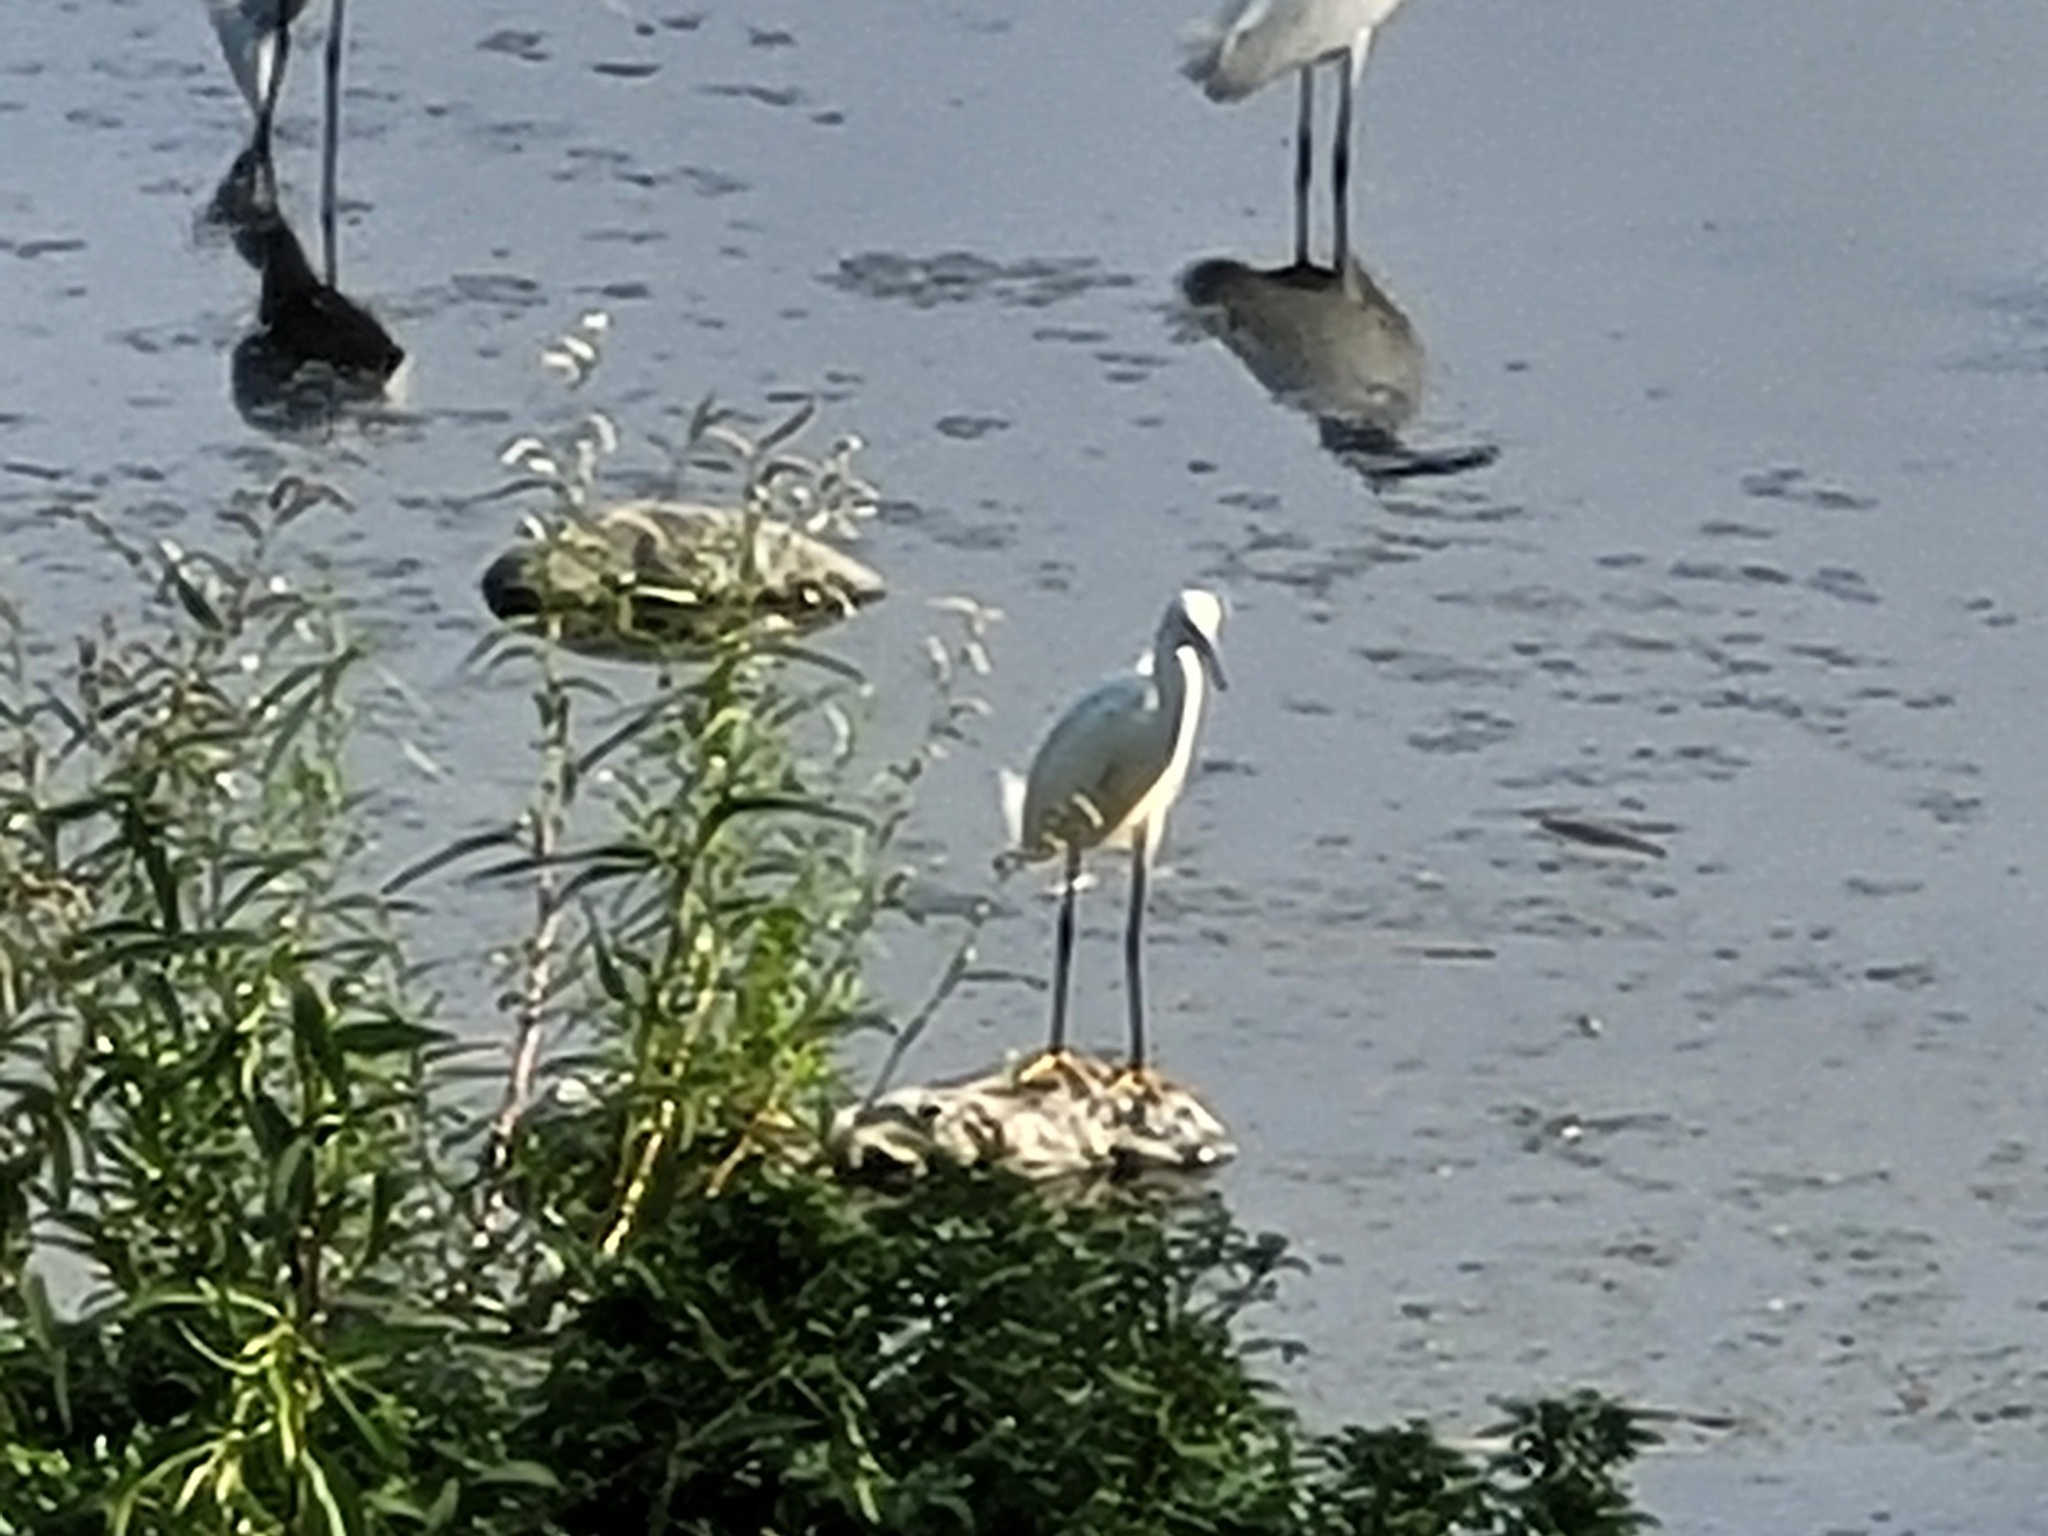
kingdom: Animalia
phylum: Chordata
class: Aves
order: Pelecaniformes
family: Ardeidae
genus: Egretta
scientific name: Egretta thula
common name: Snowy egret
